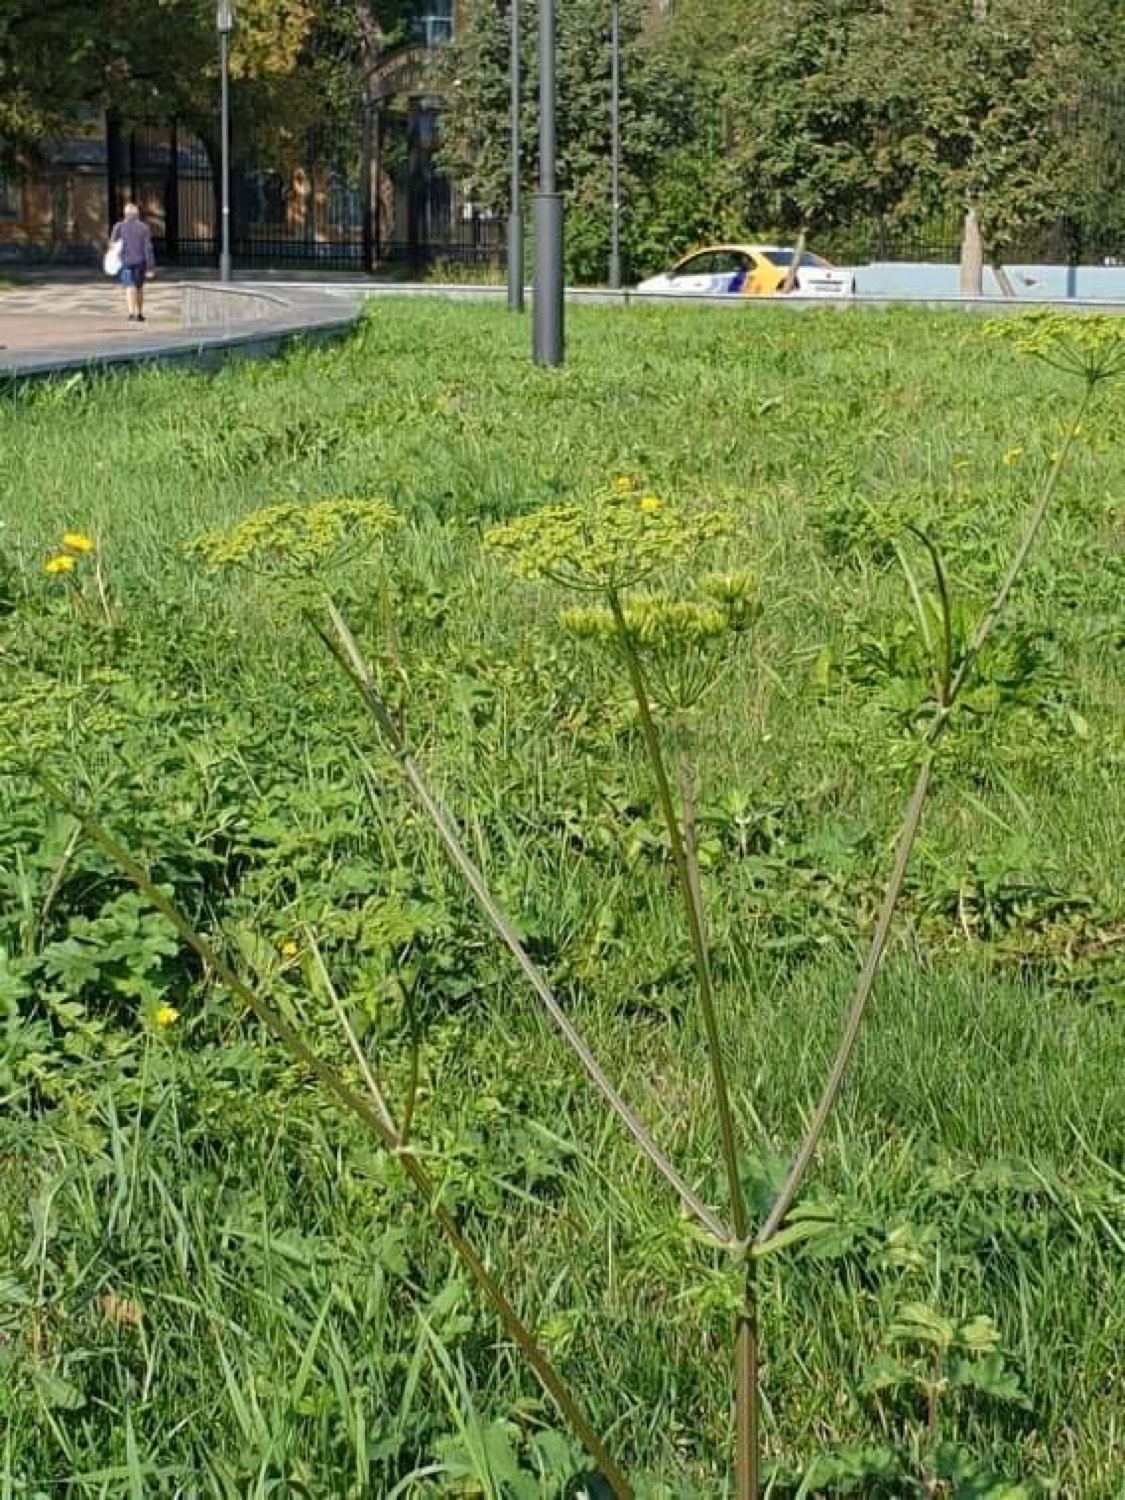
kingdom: Plantae
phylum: Tracheophyta
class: Magnoliopsida
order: Apiales
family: Apiaceae
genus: Heracleum
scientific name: Heracleum sphondylium
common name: Hogweed
